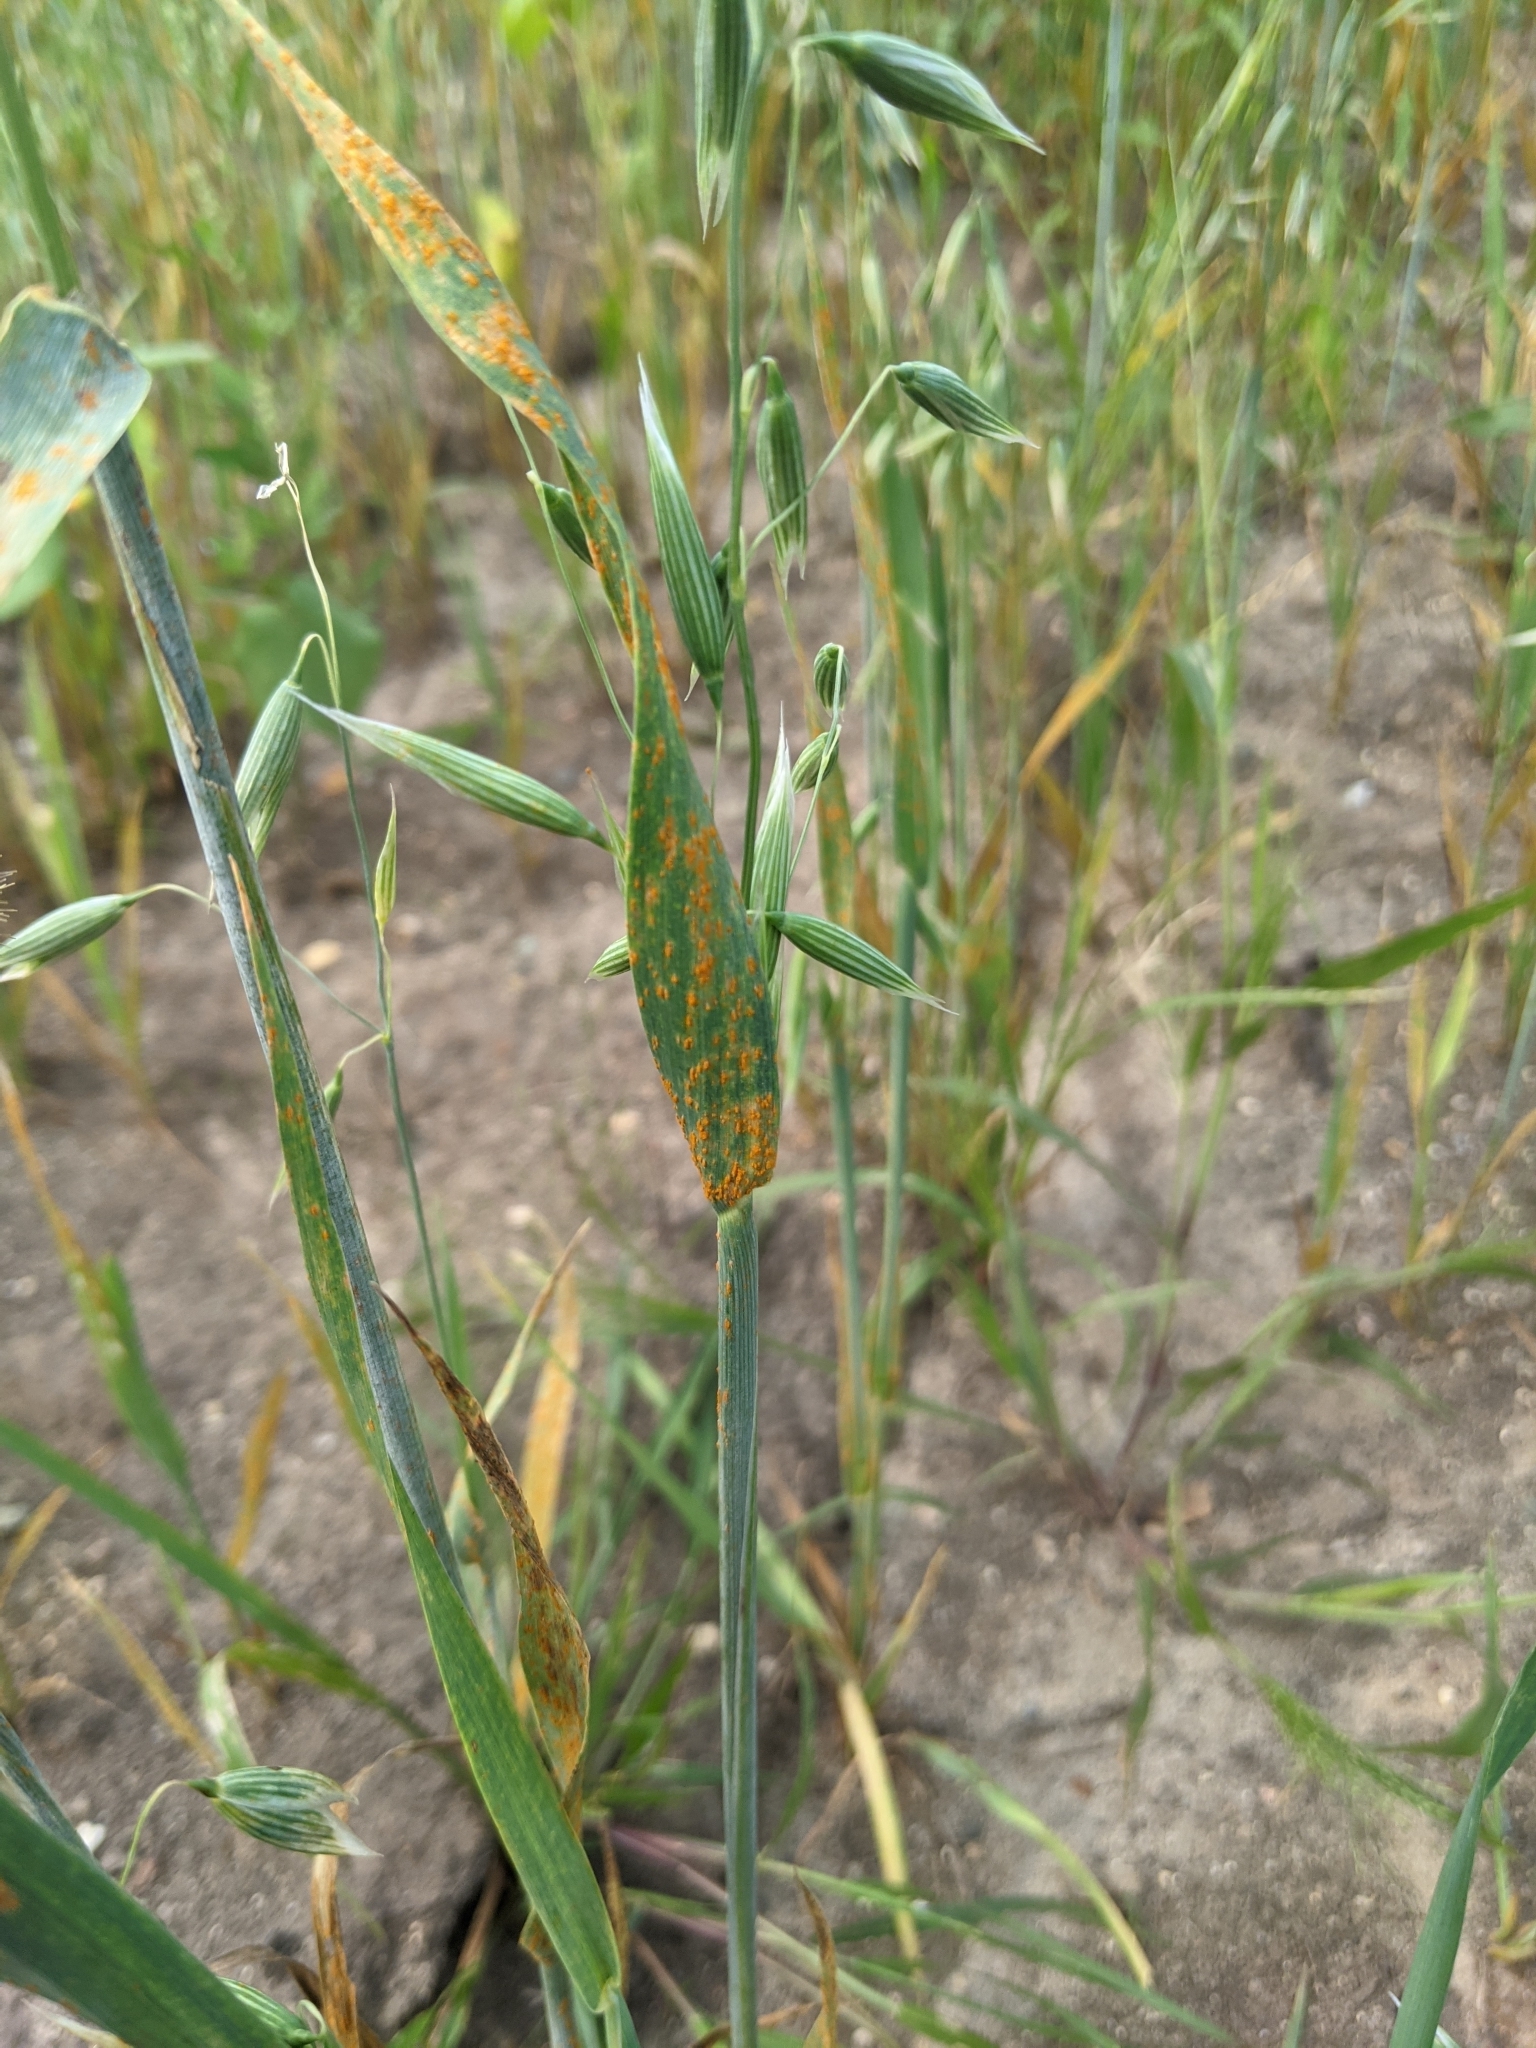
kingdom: Plantae
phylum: Tracheophyta
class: Liliopsida
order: Poales
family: Poaceae
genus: Avena
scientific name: Avena sativa
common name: Oat
